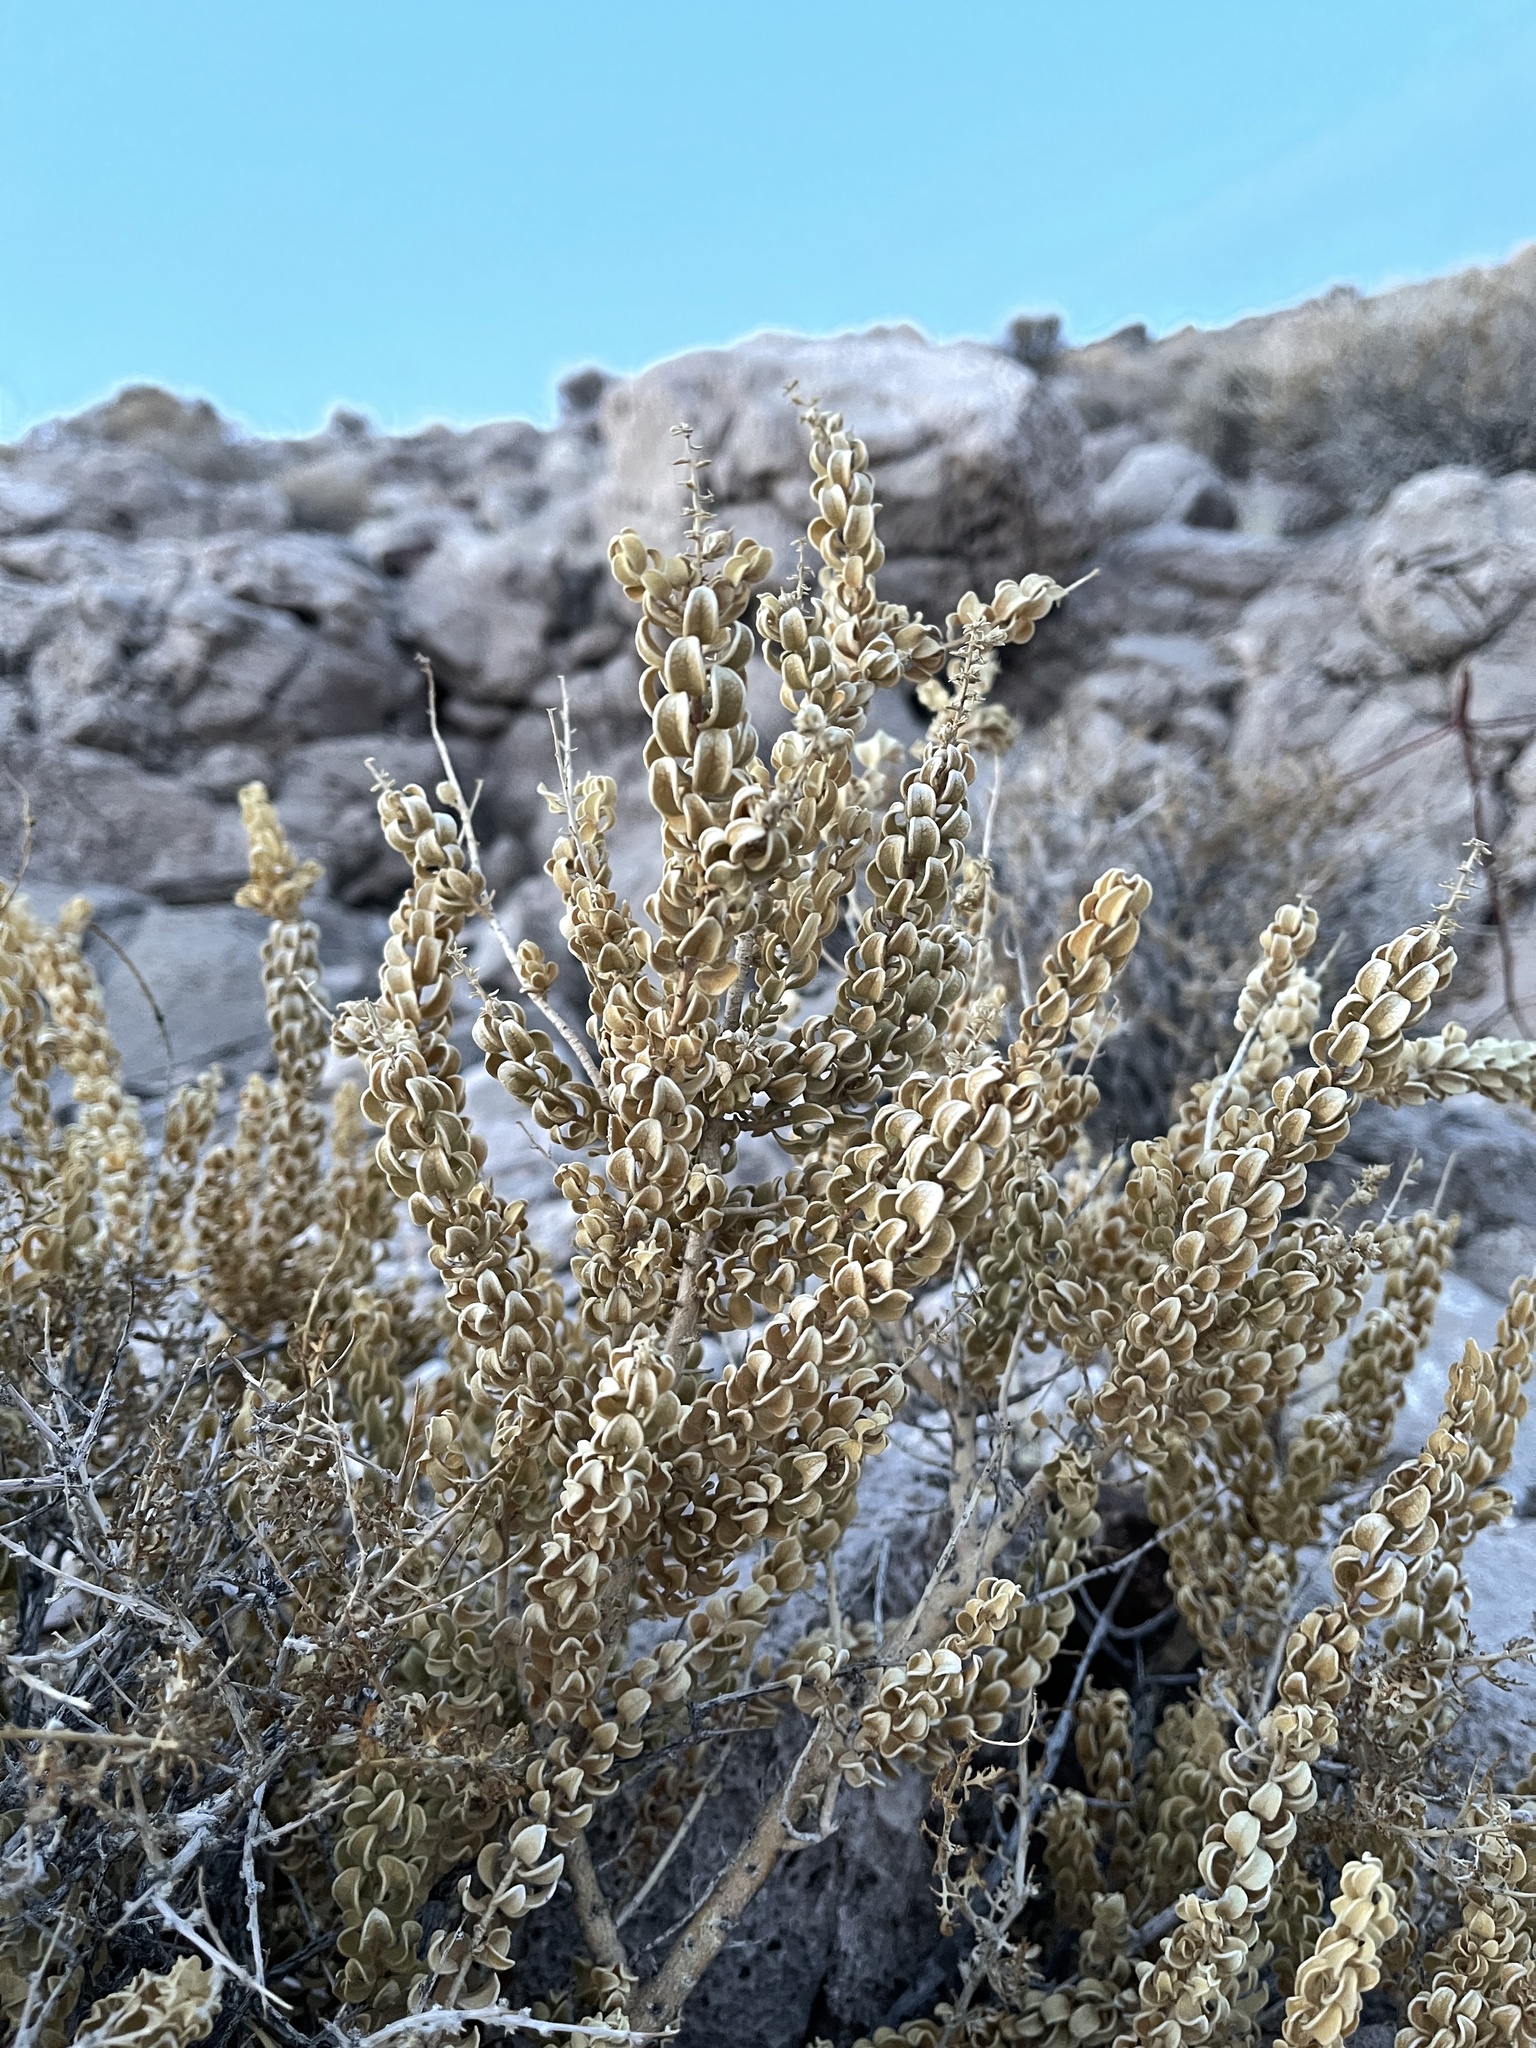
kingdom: Plantae
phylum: Tracheophyta
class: Magnoliopsida
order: Celastrales
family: Celastraceae
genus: Mortonia
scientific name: Mortonia utahensis
